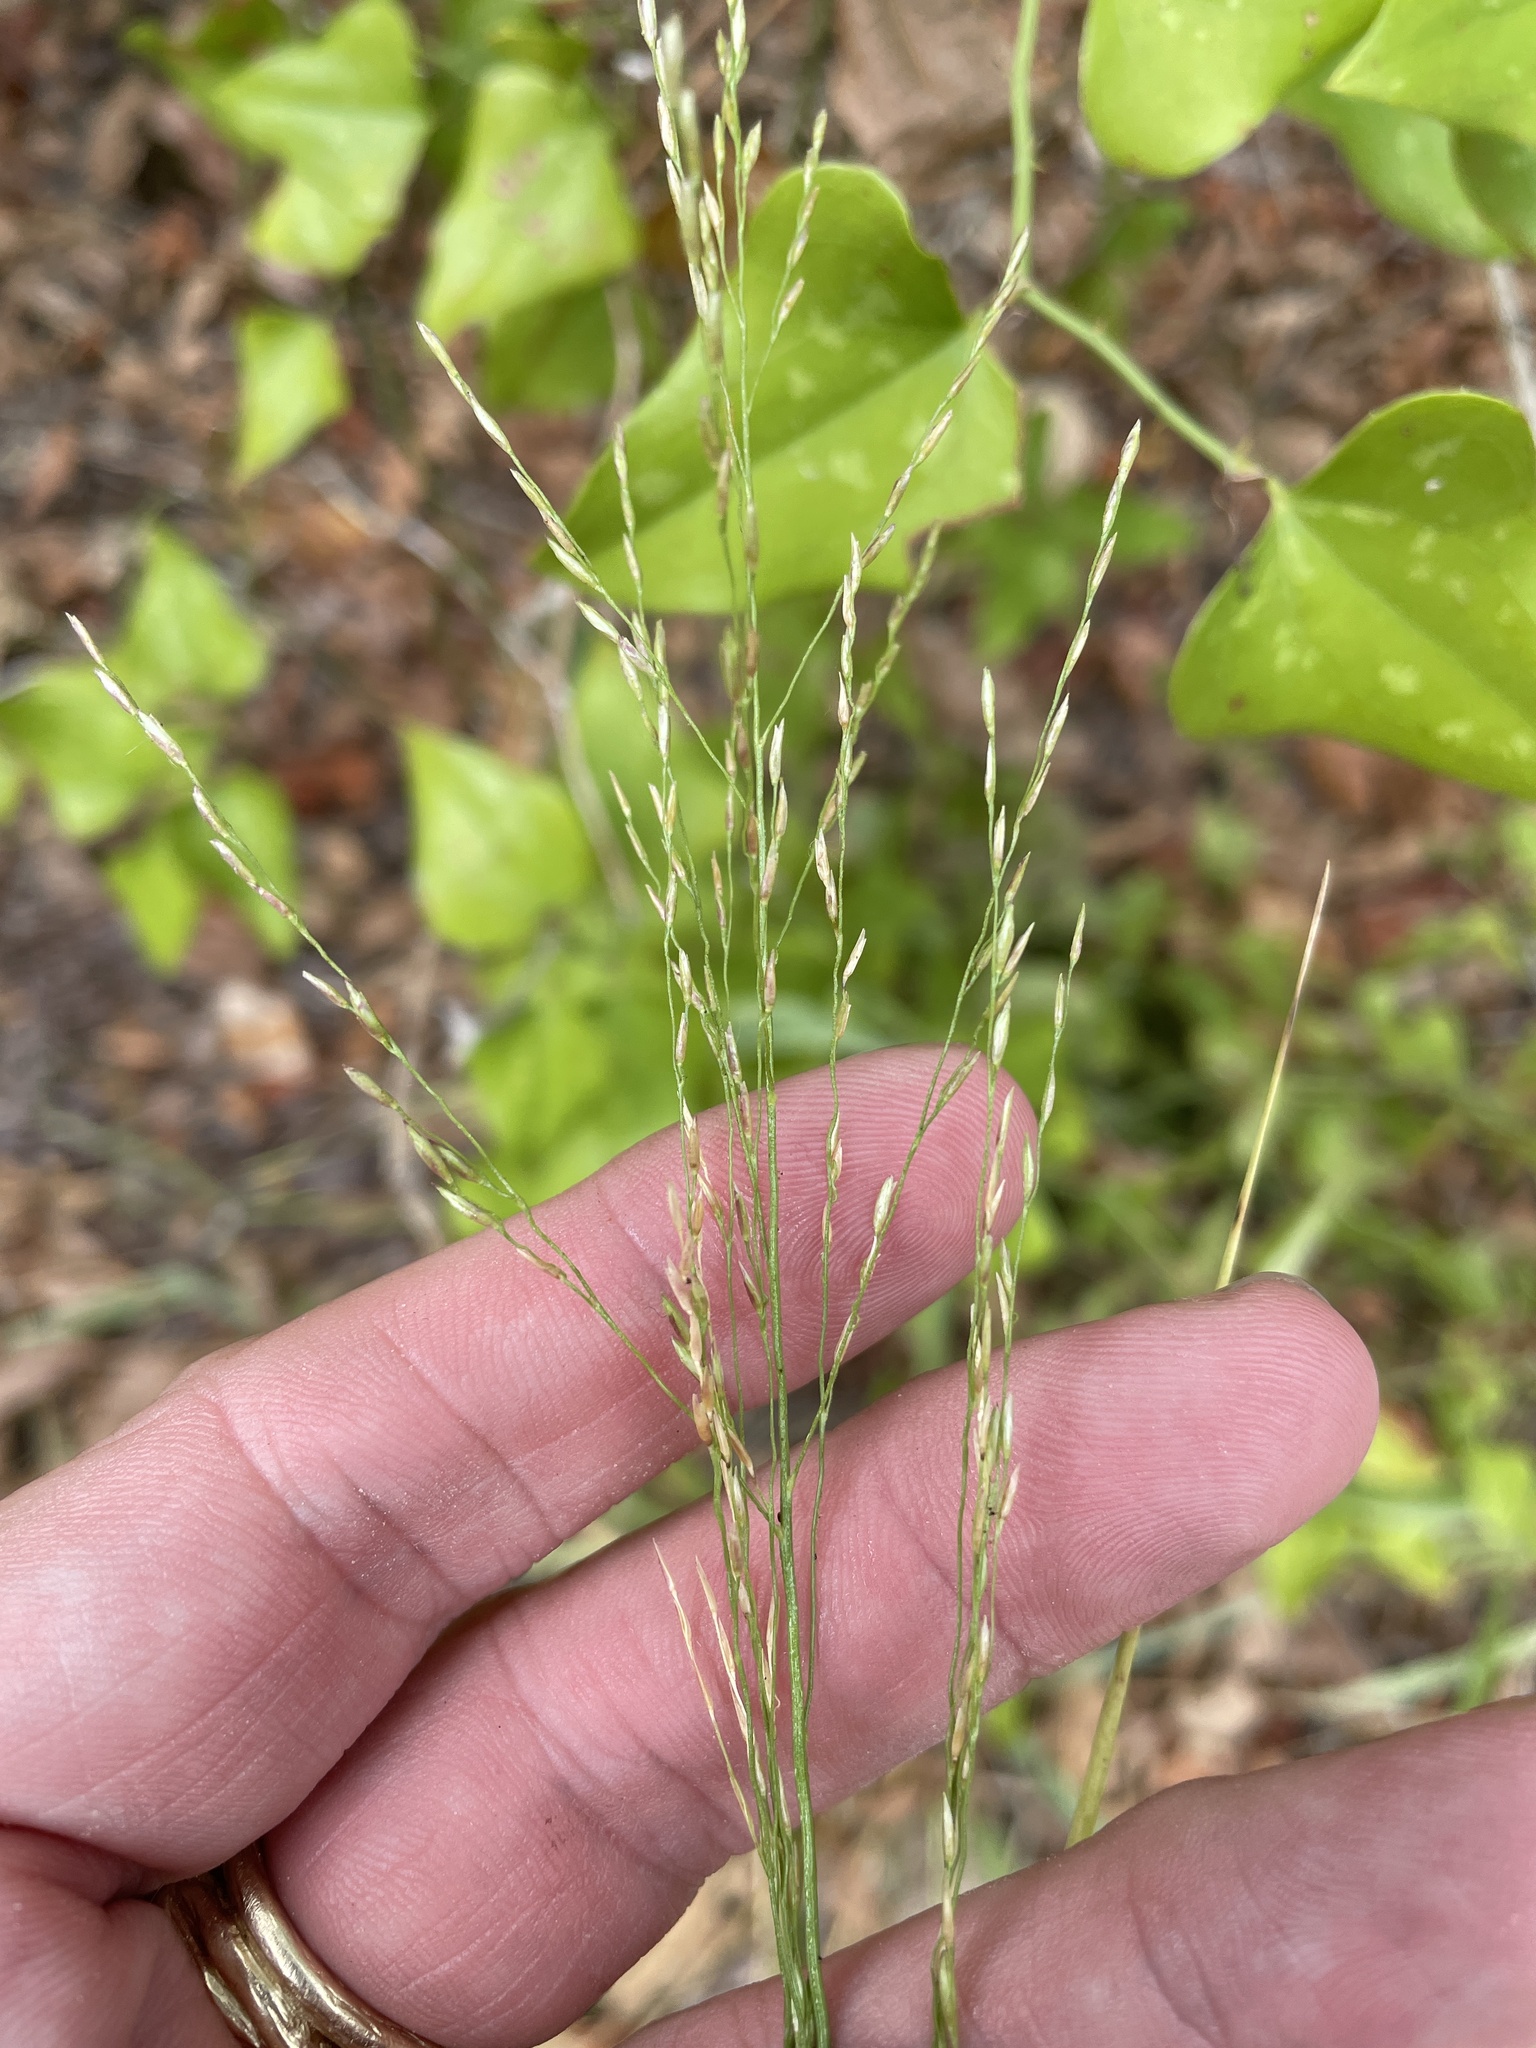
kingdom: Plantae
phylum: Tracheophyta
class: Liliopsida
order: Poales
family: Poaceae
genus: Tridens
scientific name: Tridens flavus
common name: Purpletop
